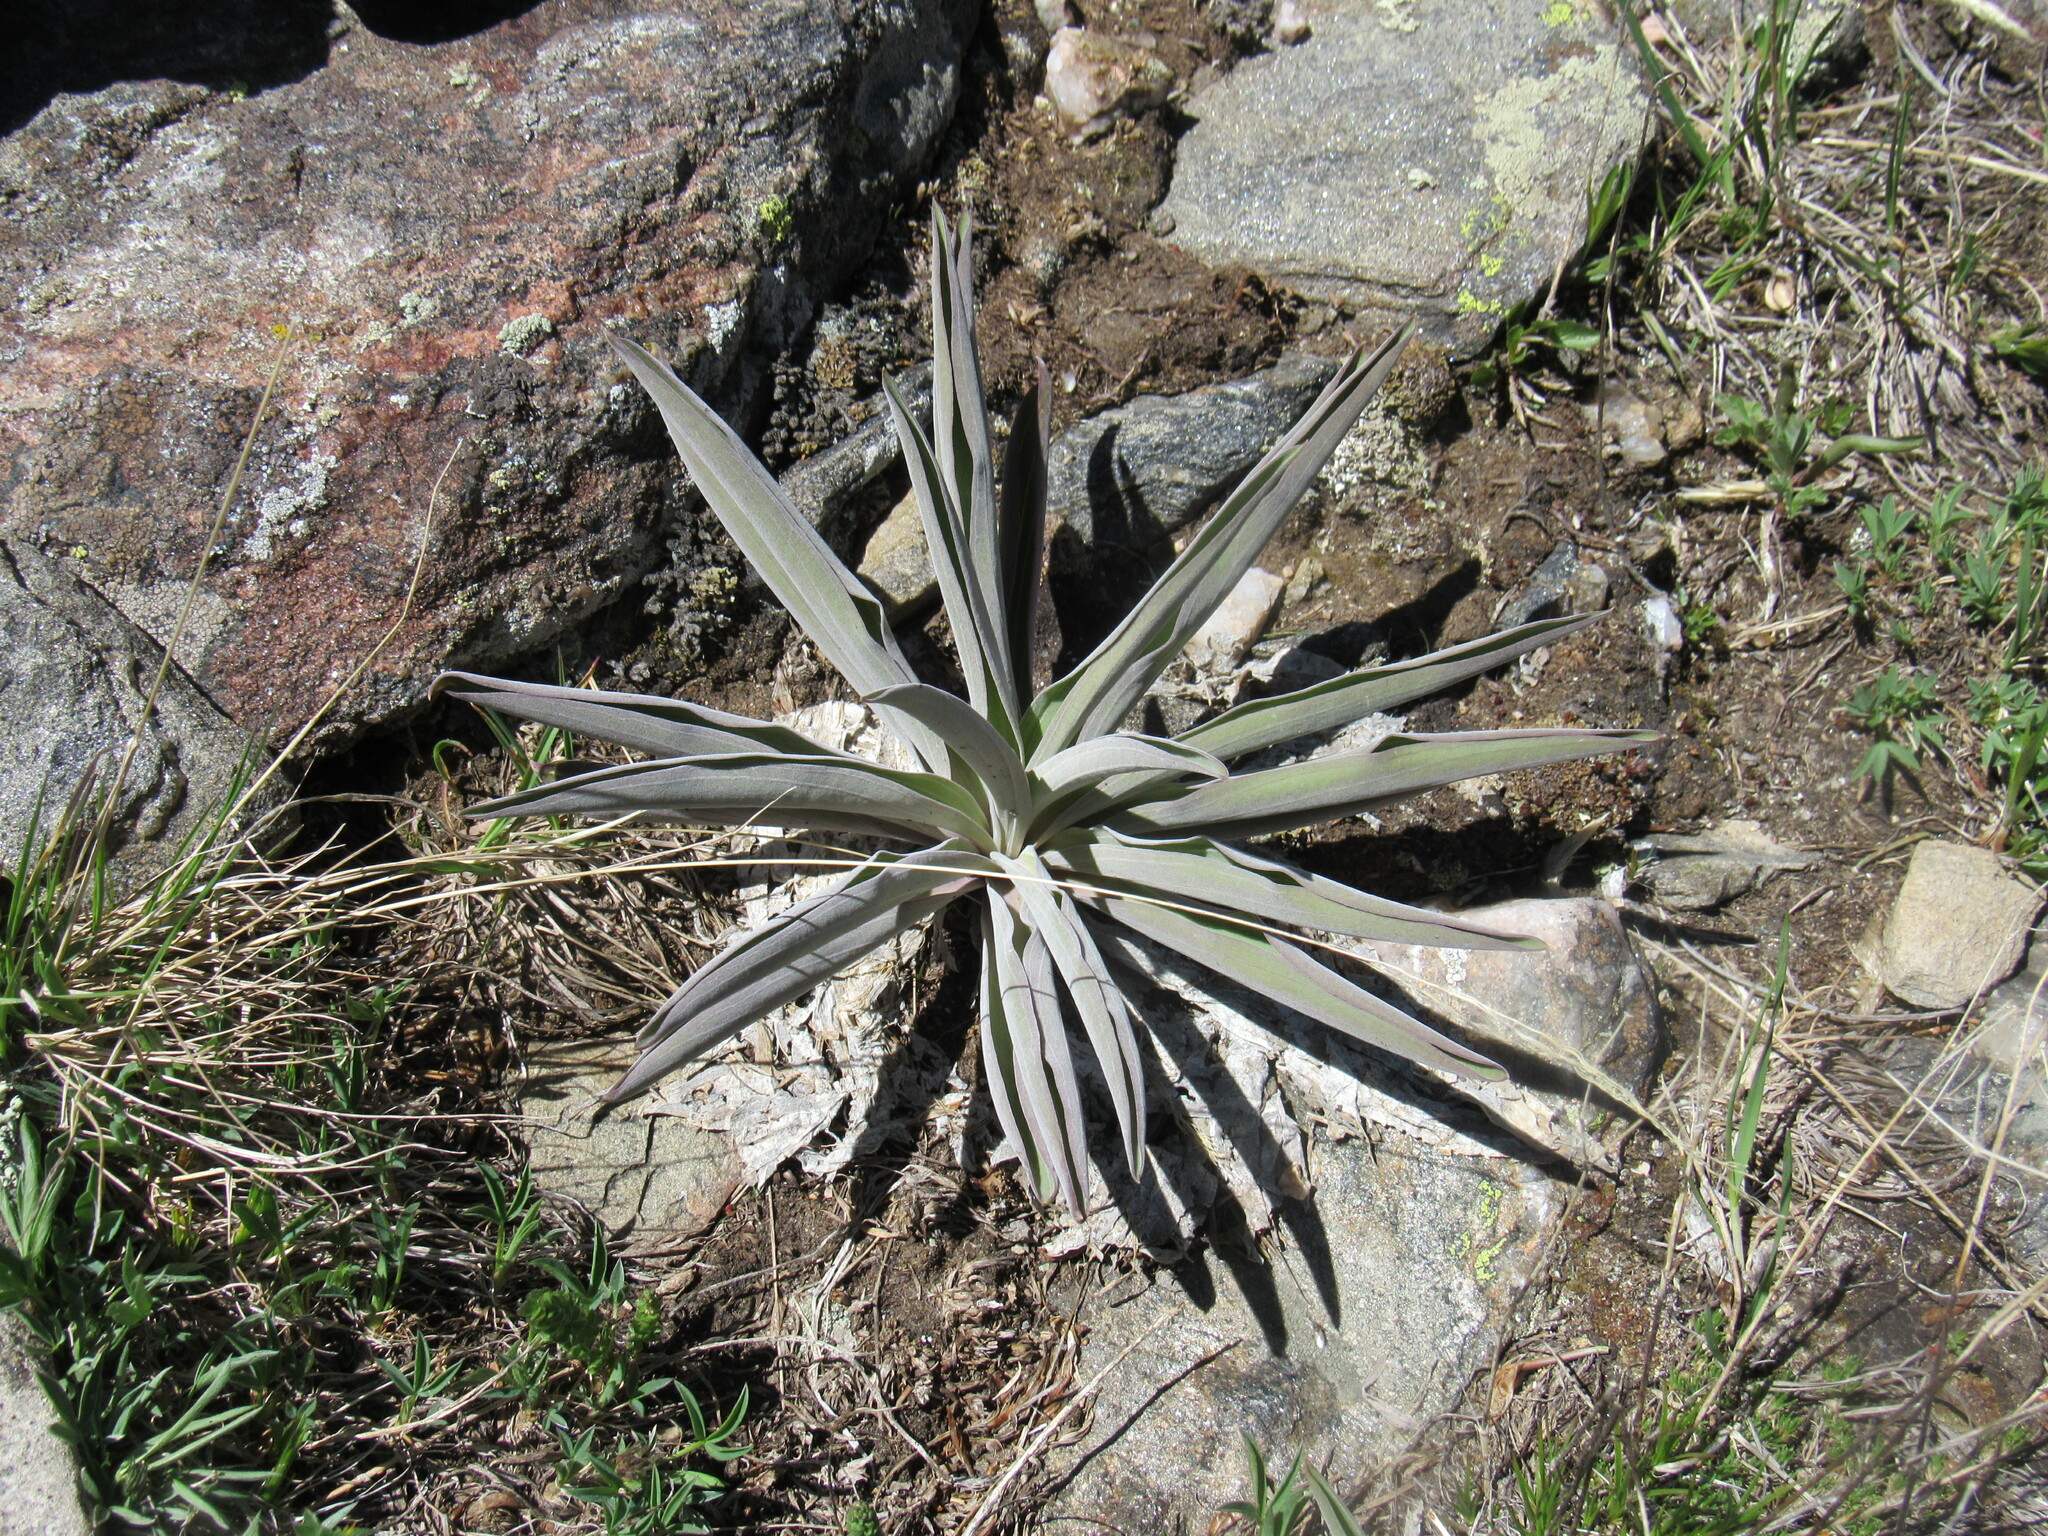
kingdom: Plantae
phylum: Tracheophyta
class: Magnoliopsida
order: Gentianales
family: Gentianaceae
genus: Frasera
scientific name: Frasera speciosa
